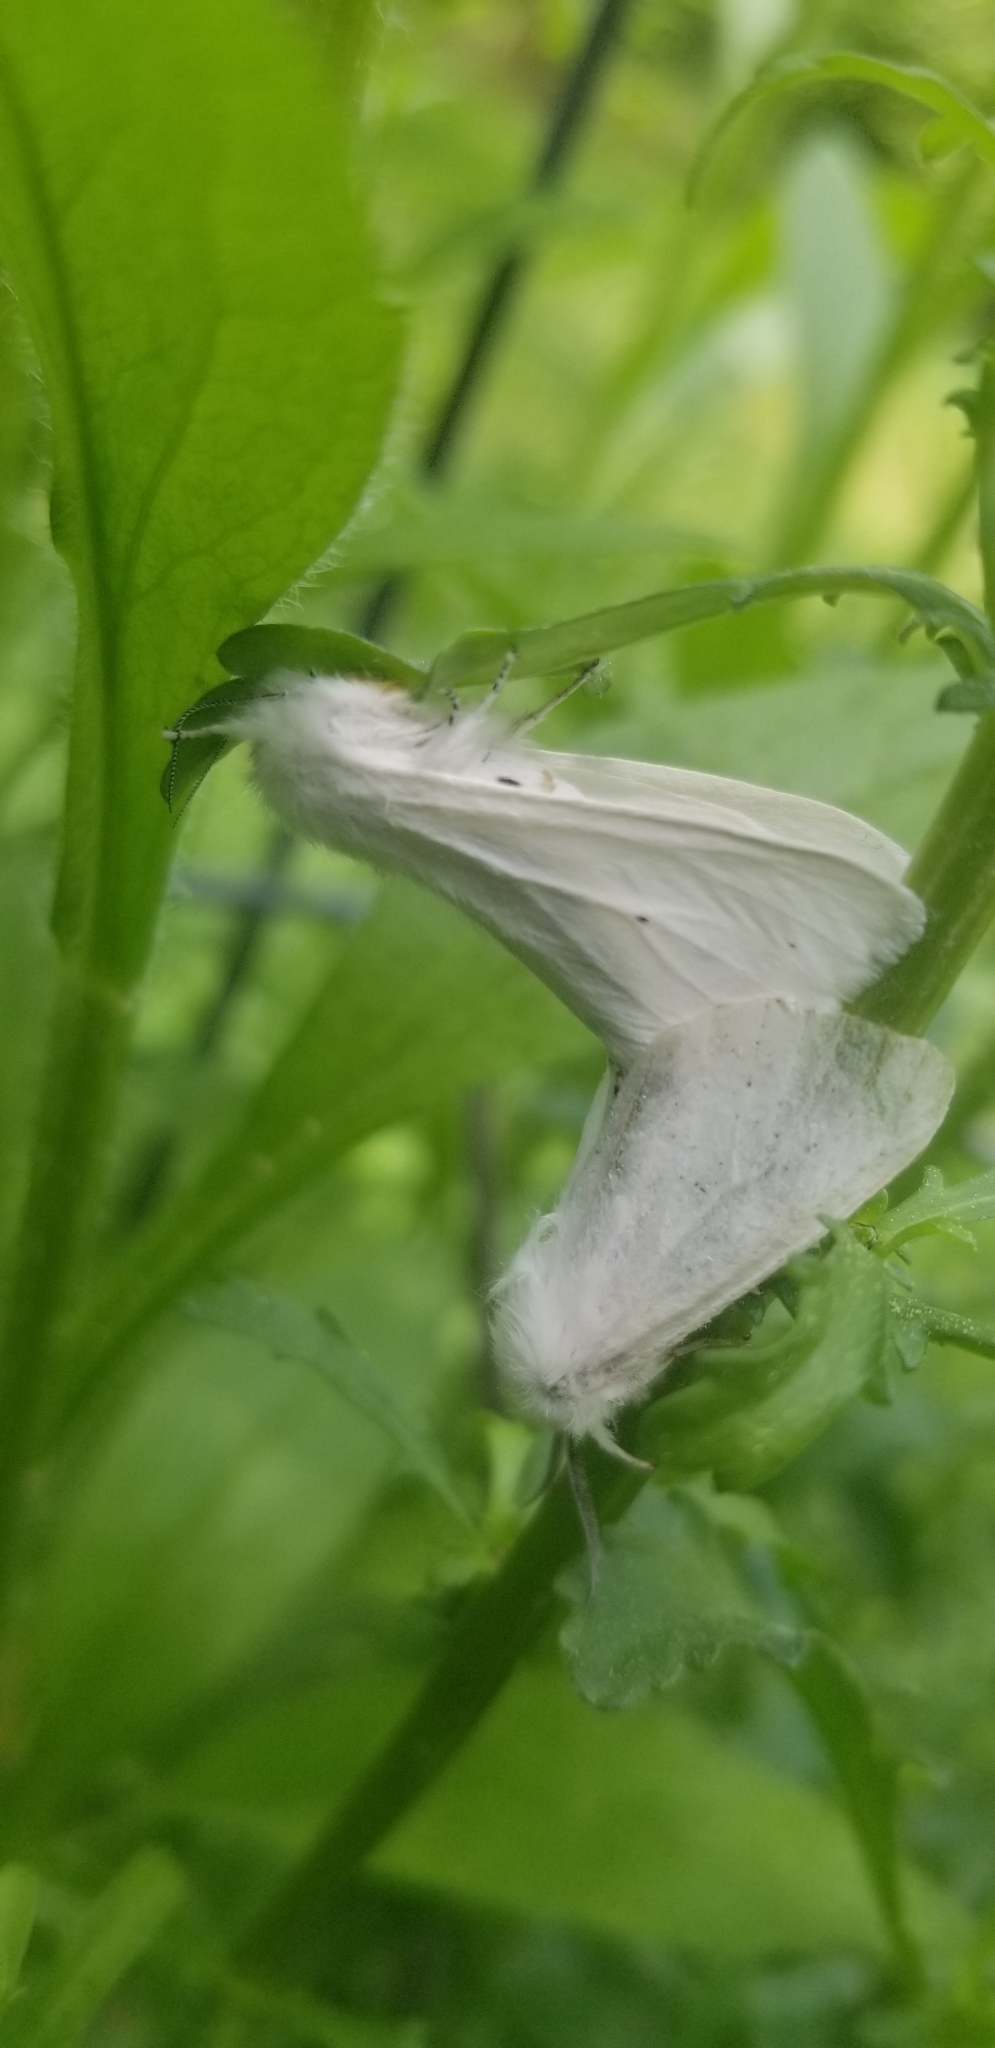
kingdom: Animalia
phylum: Arthropoda
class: Insecta
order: Lepidoptera
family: Erebidae
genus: Spilosoma
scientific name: Spilosoma virginica
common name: Virginia tiger moth
